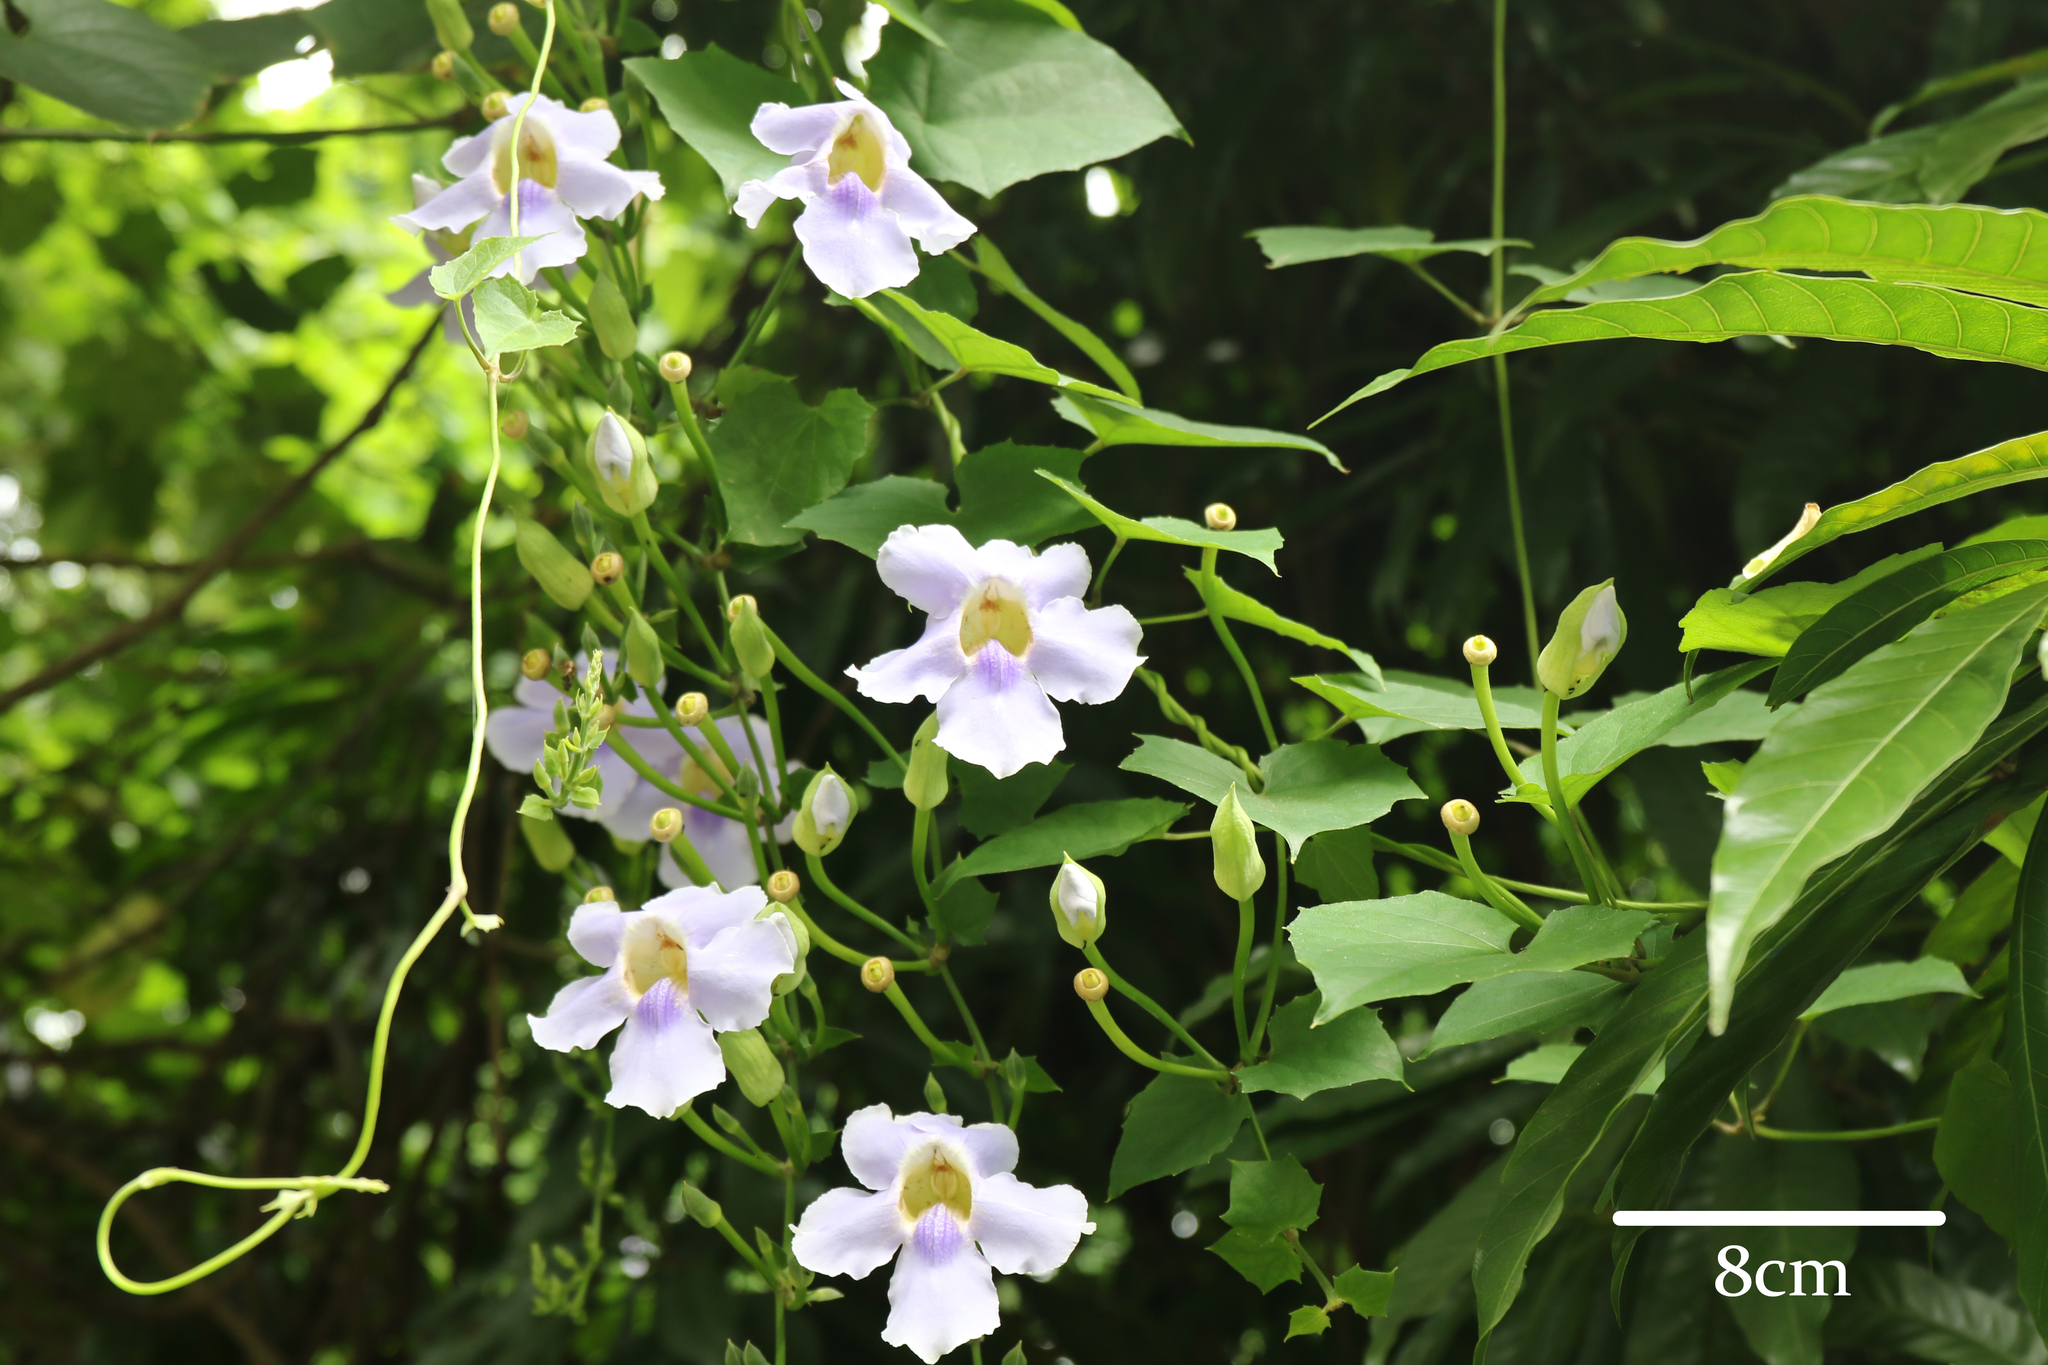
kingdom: Plantae
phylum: Tracheophyta
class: Magnoliopsida
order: Lamiales
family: Acanthaceae
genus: Thunbergia
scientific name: Thunbergia grandiflora
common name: Bengal trumpet
